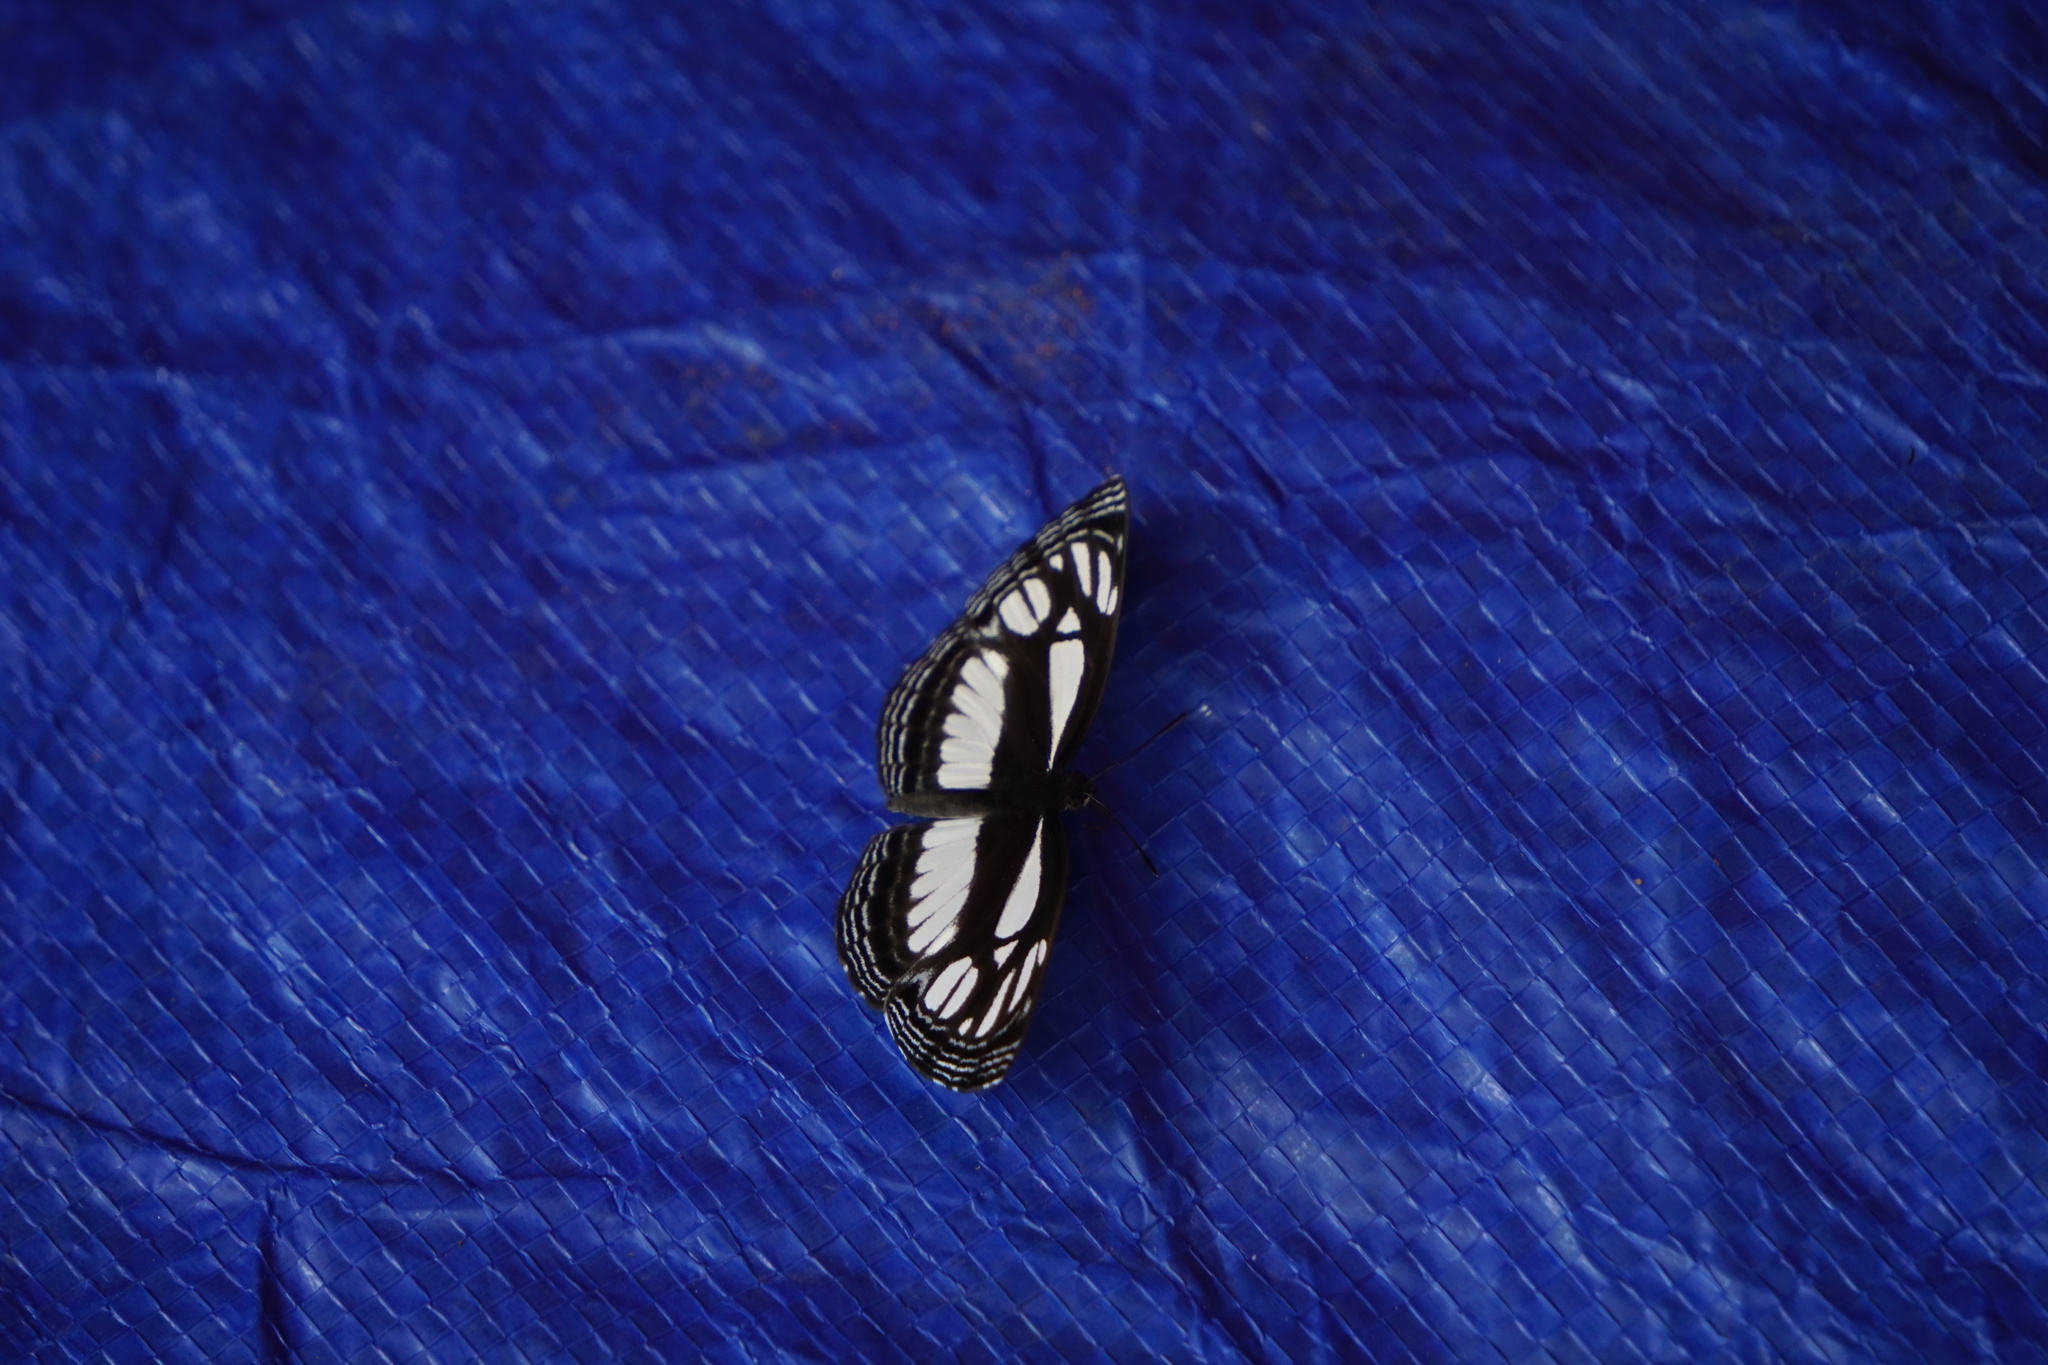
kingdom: Animalia
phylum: Arthropoda
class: Insecta
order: Lepidoptera
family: Nymphalidae
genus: Neptis
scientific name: Neptis melicerta
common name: Original club sailer
